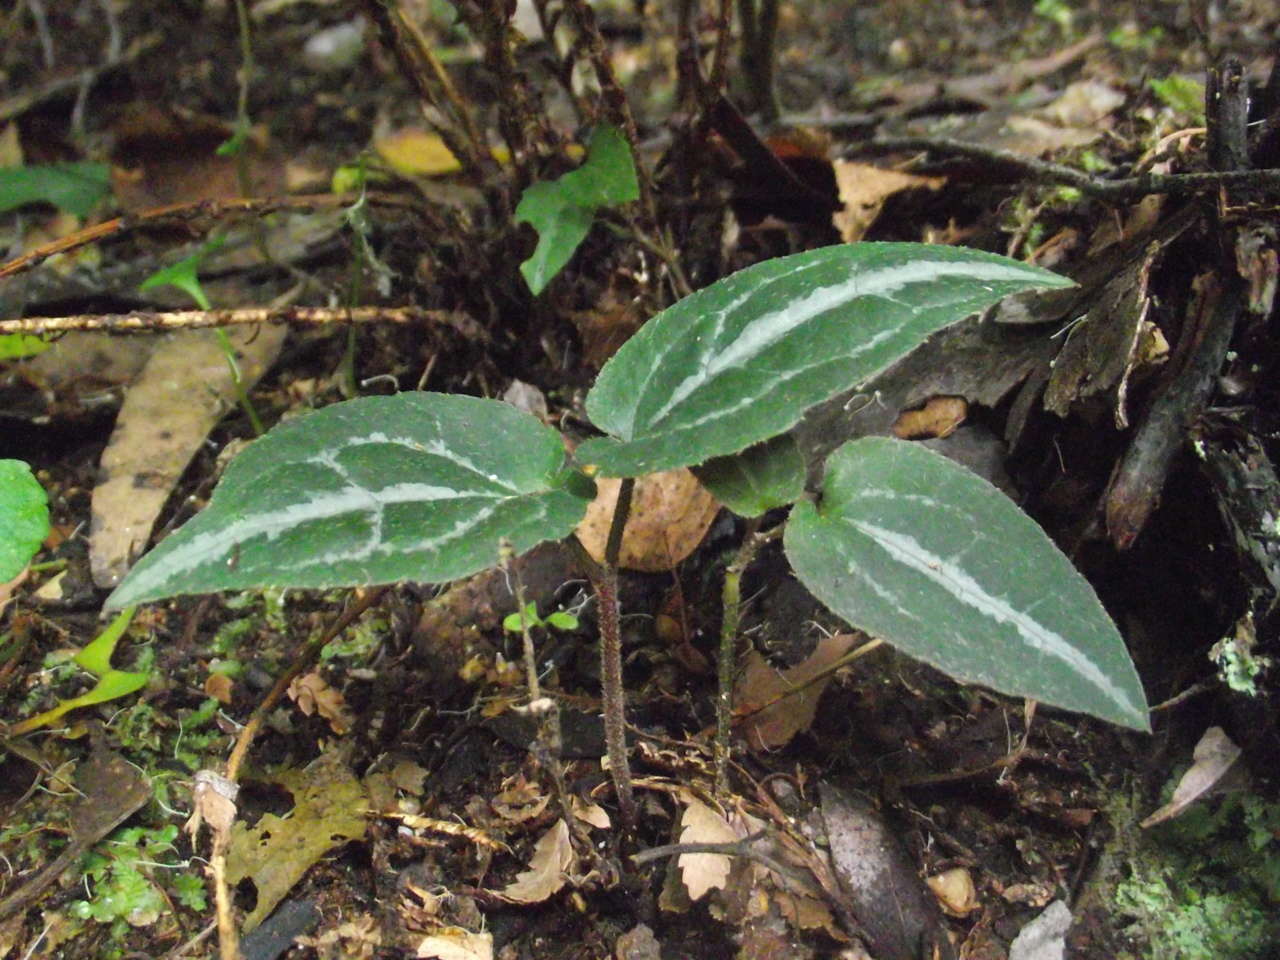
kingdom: Plantae
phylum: Tracheophyta
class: Magnoliopsida
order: Ranunculales
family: Ranunculaceae
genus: Clematis
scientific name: Clematis aristata
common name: Mountain clematis
